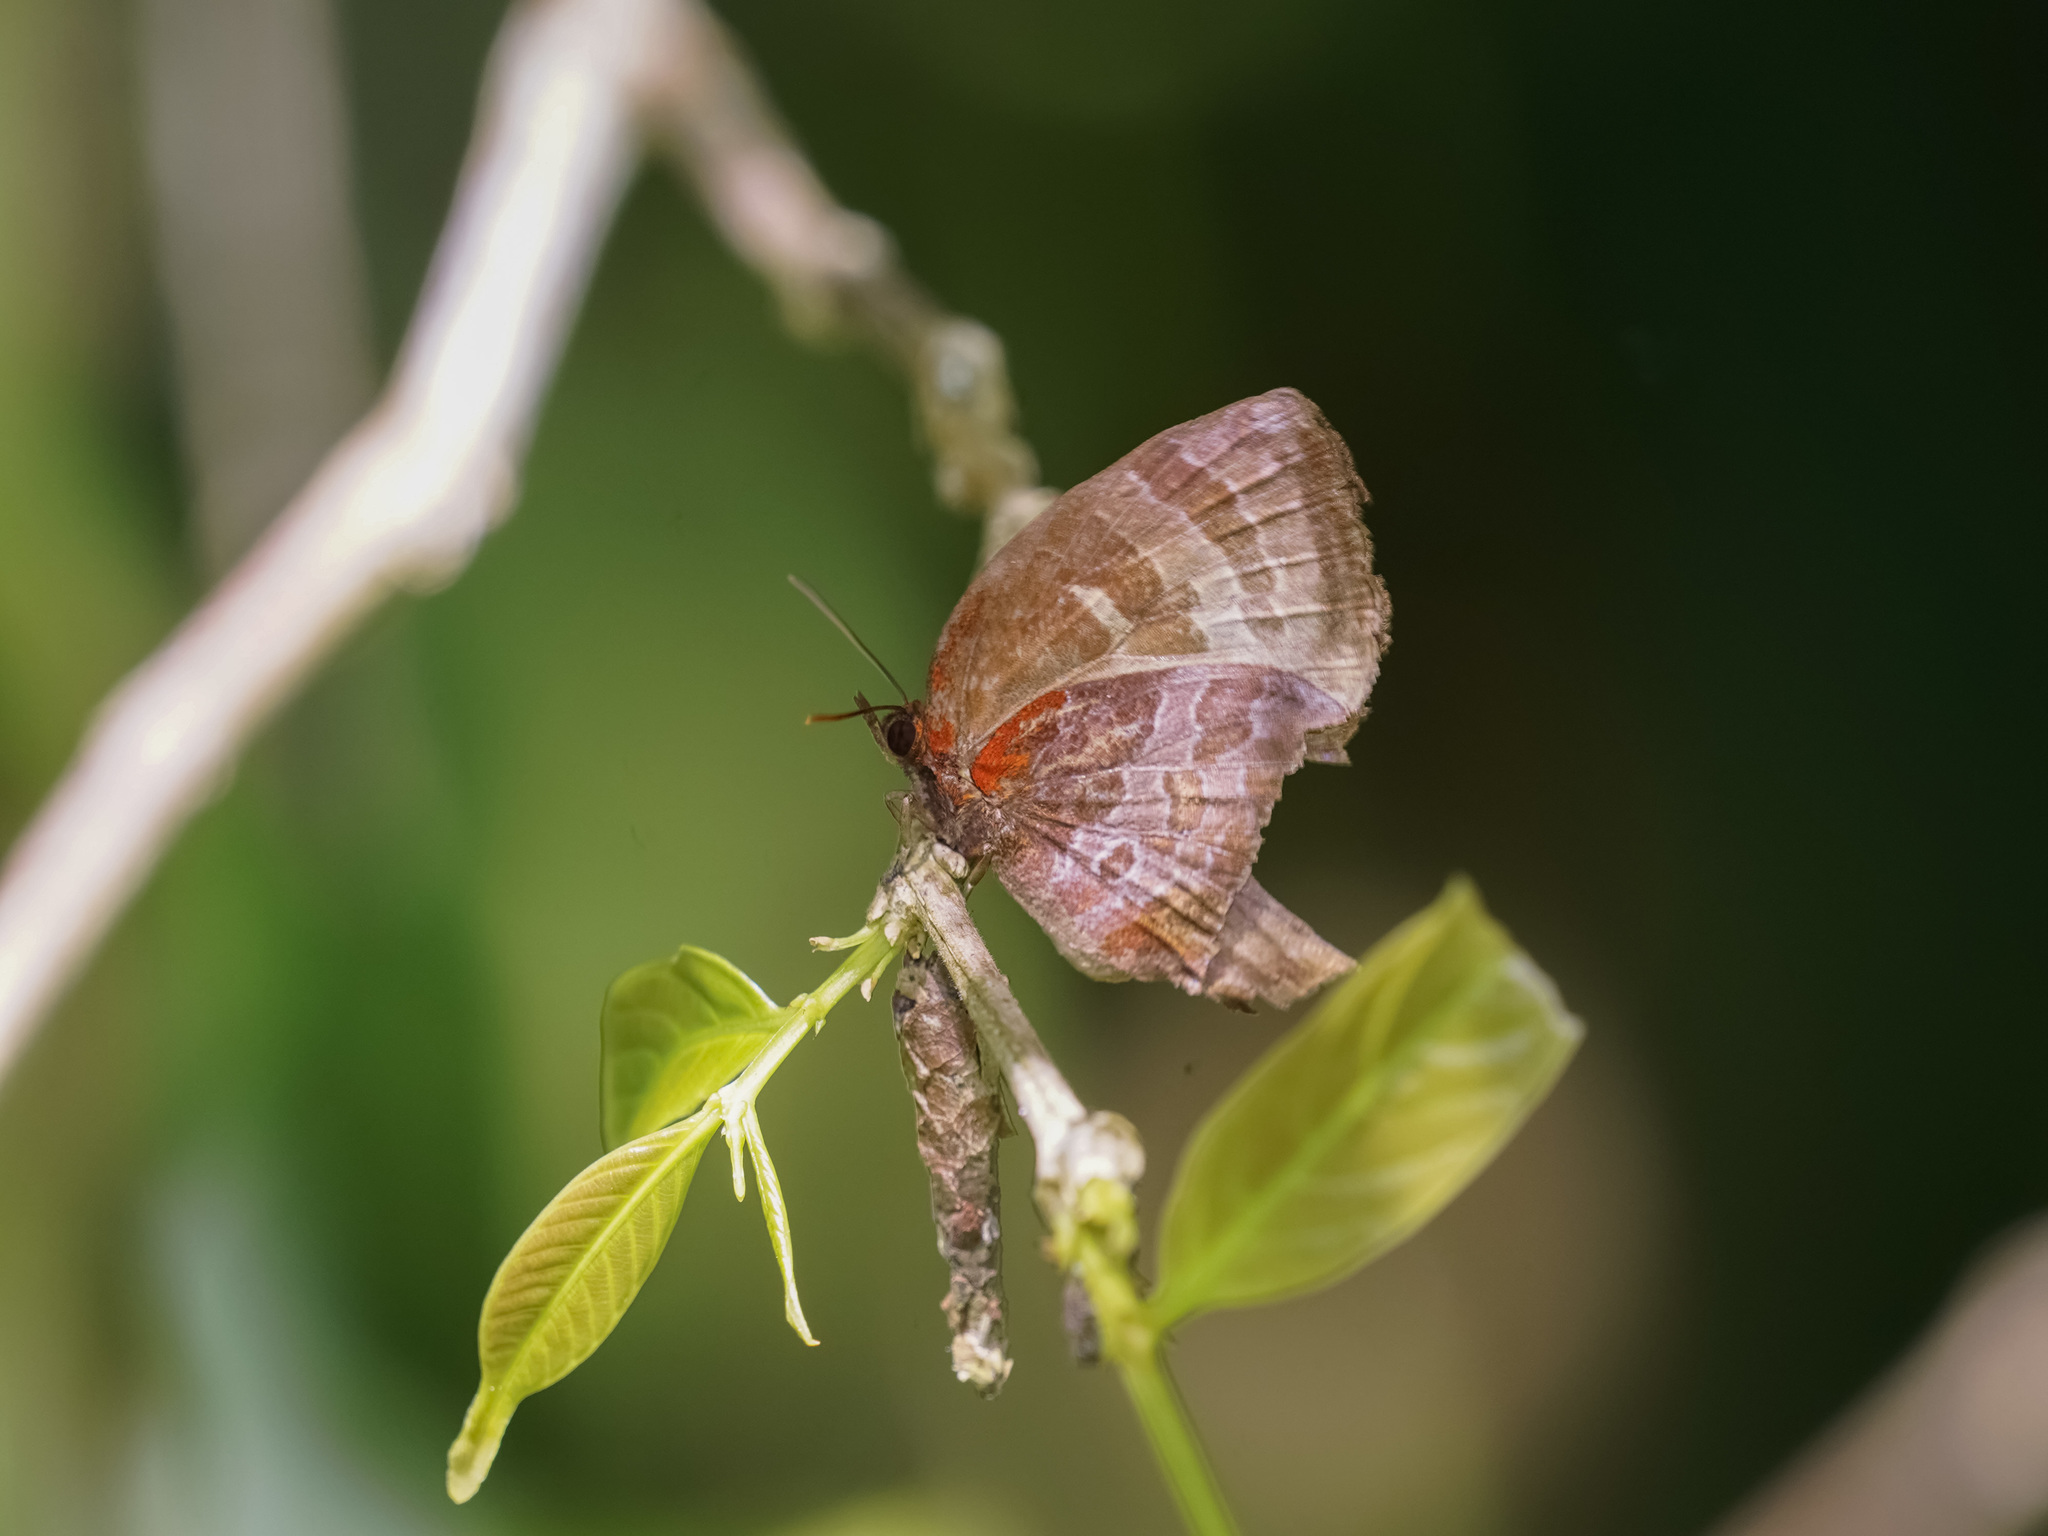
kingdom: Animalia
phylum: Arthropoda
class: Insecta
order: Lepidoptera
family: Lycaenidae
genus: Flos
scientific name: Flos apidanus
